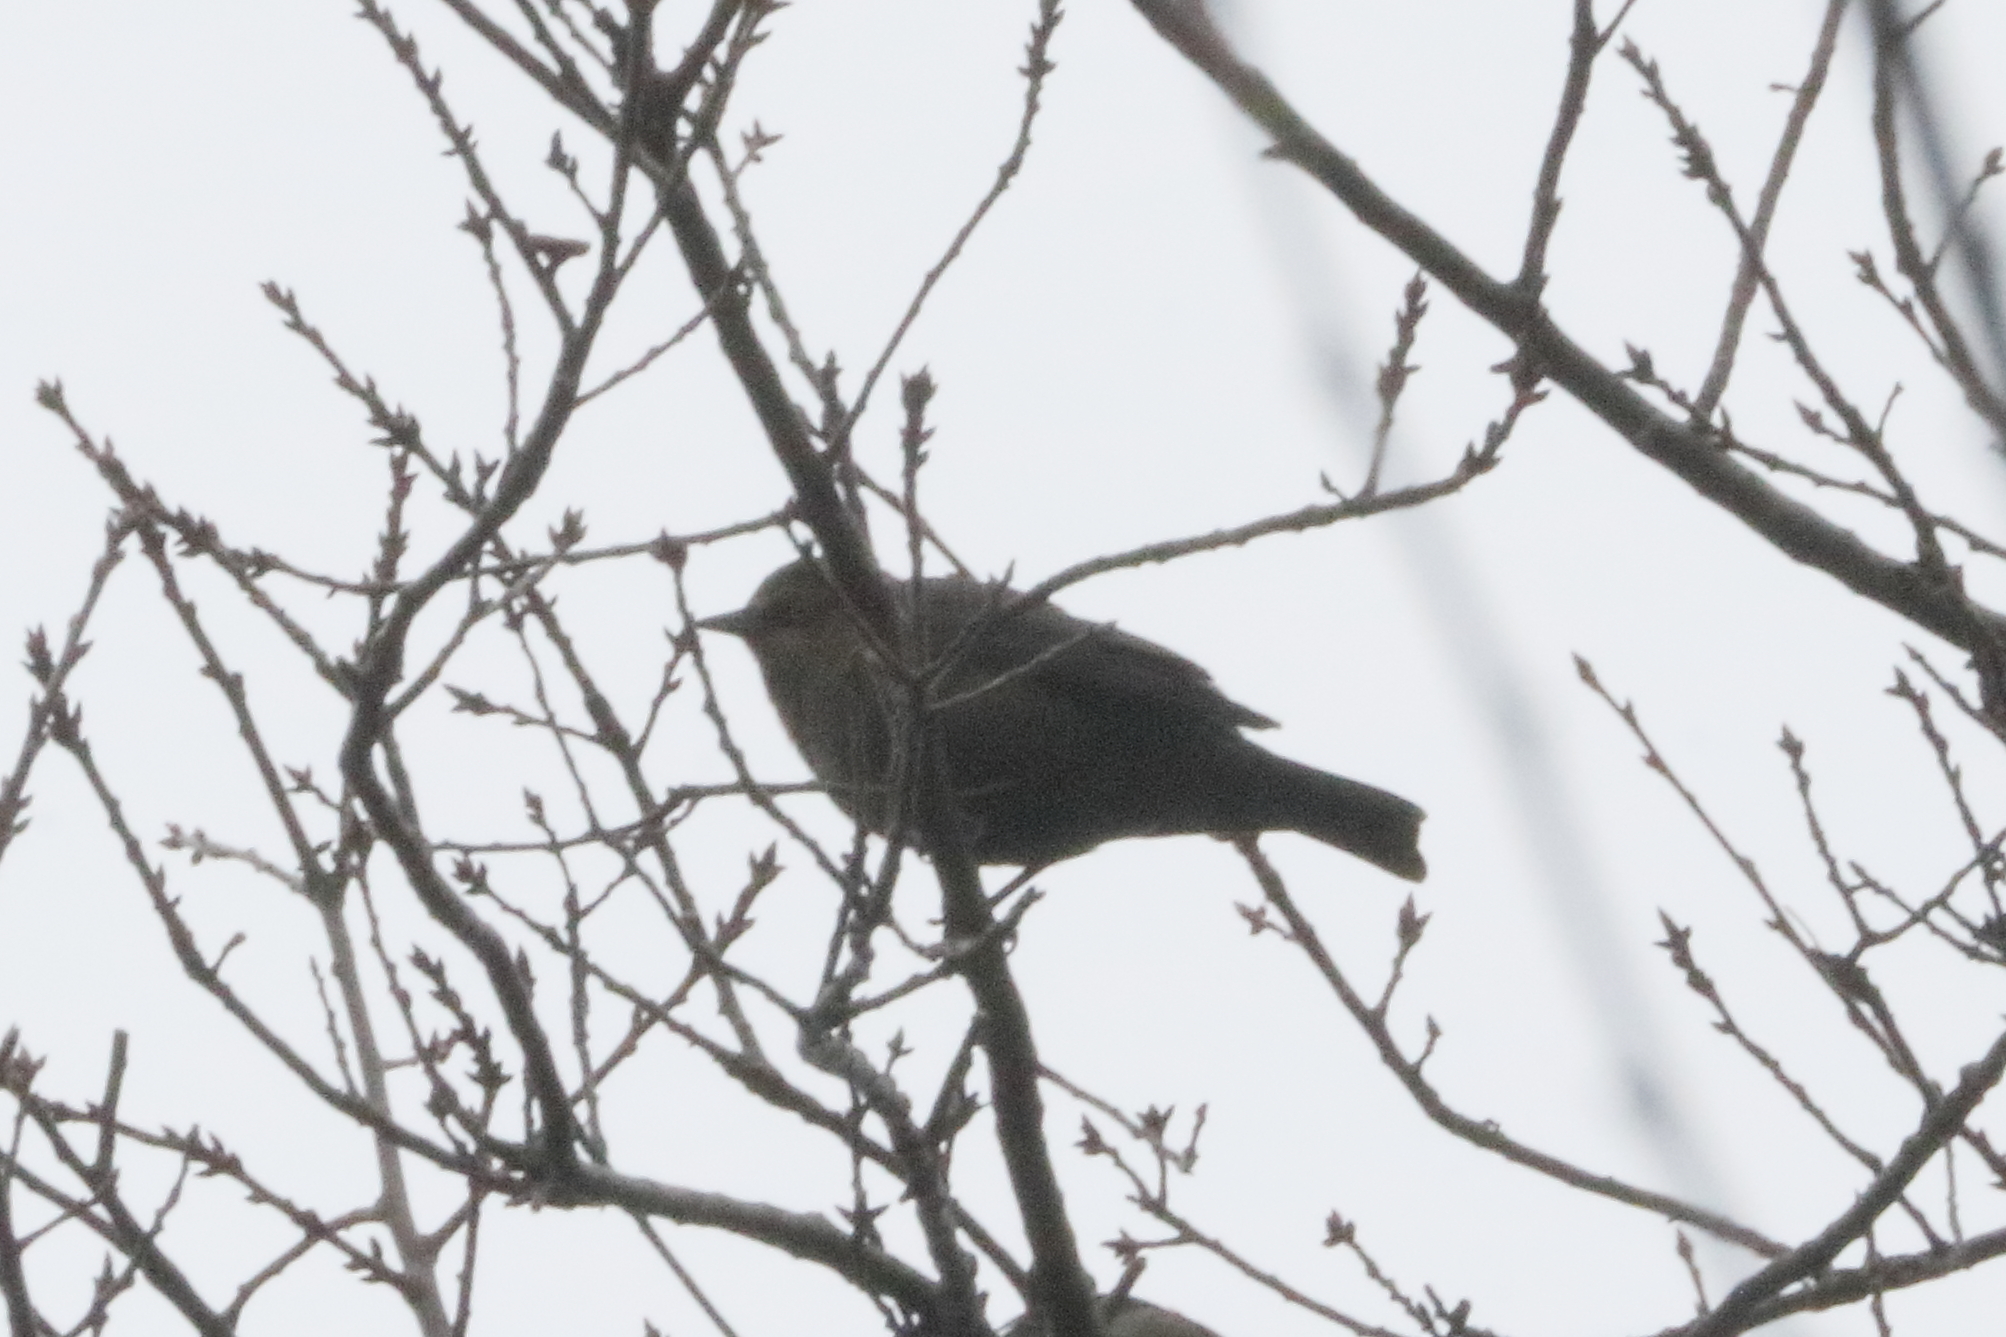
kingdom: Animalia
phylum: Chordata
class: Aves
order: Passeriformes
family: Icteridae
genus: Euphagus
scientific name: Euphagus carolinus
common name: Rusty blackbird
